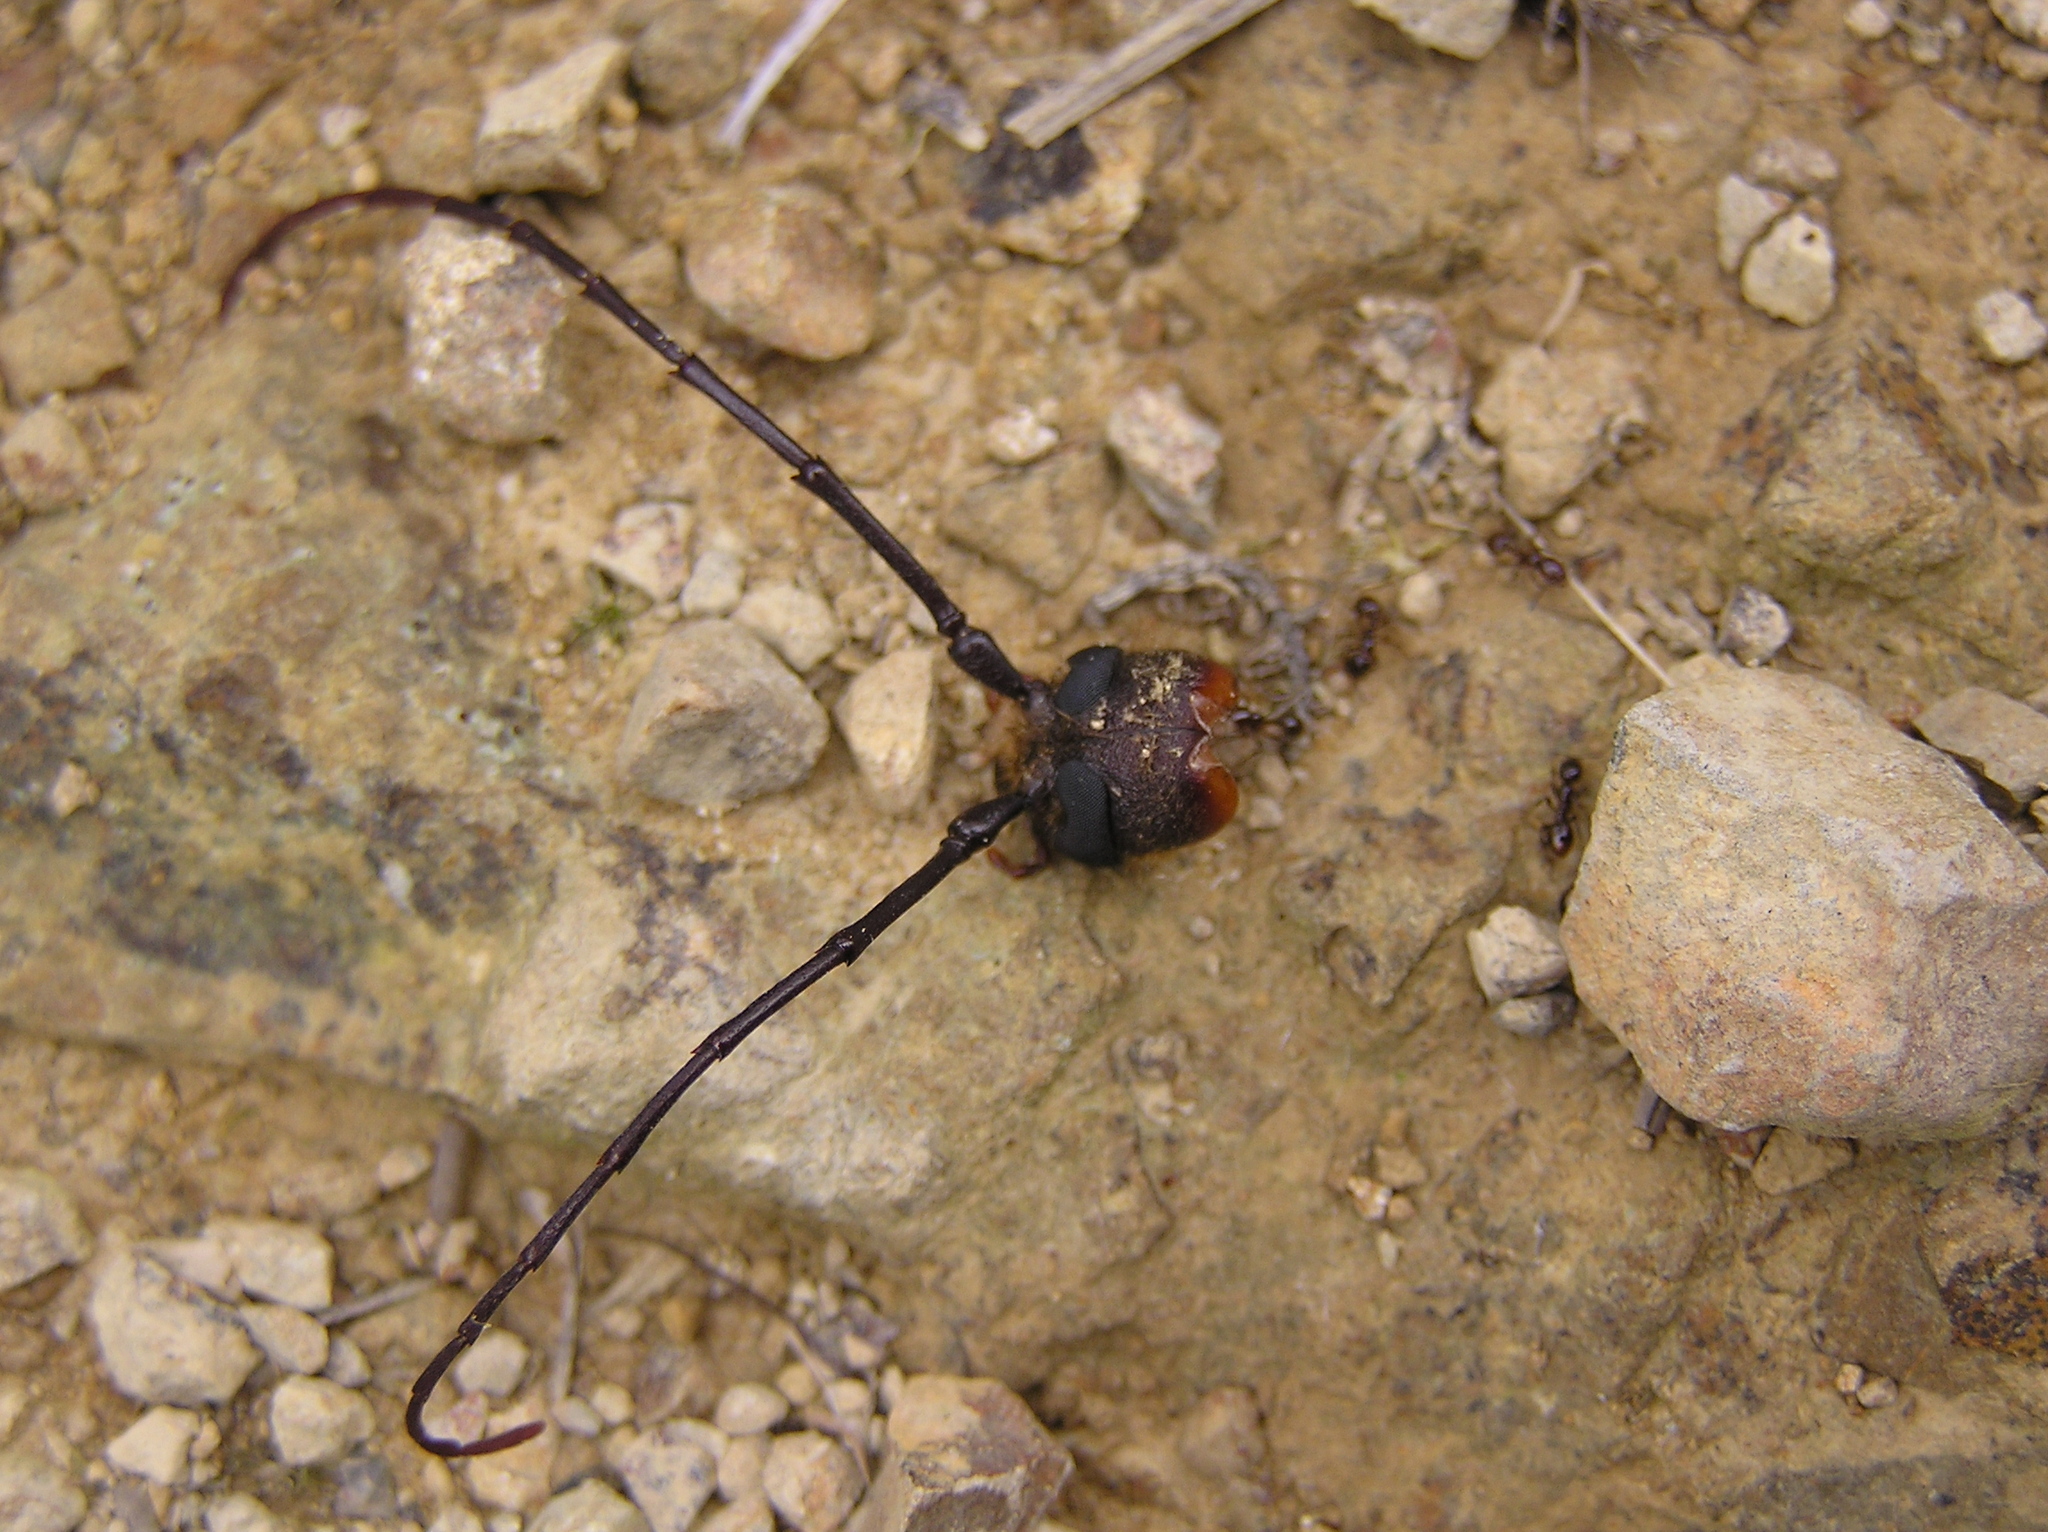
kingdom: Animalia
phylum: Arthropoda
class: Insecta
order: Coleoptera
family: Cerambycidae
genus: Prionoplus
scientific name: Prionoplus reticularis
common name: Huhu beetle
